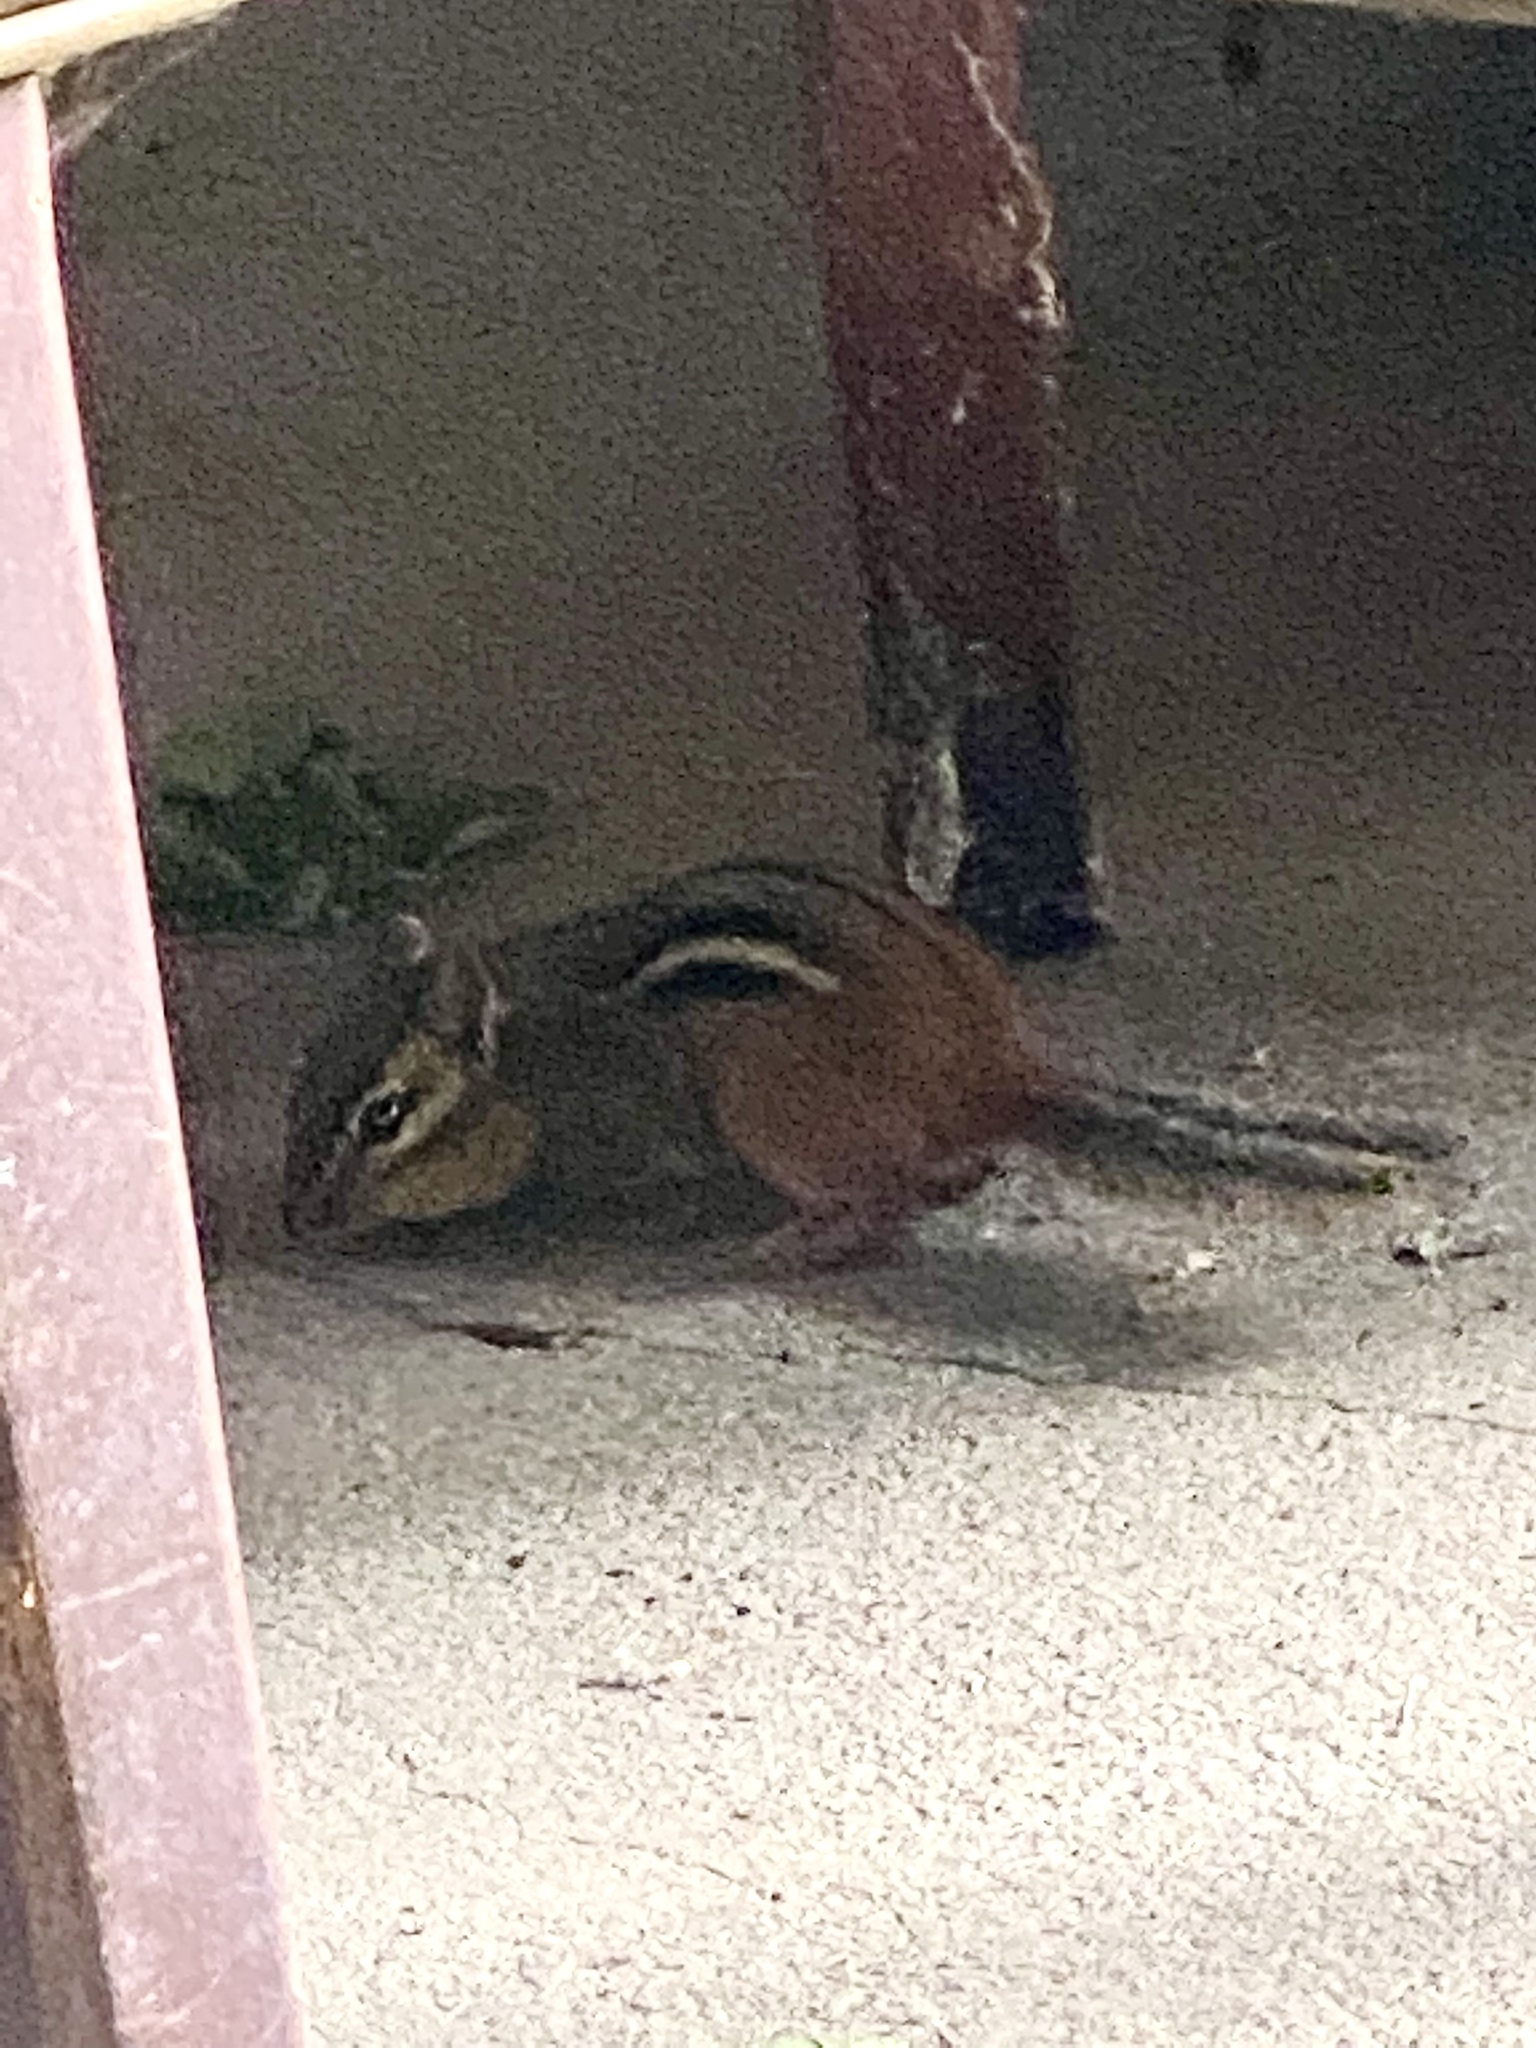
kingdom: Animalia
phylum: Chordata
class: Mammalia
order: Rodentia
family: Sciuridae
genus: Tamias
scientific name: Tamias striatus
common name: Eastern chipmunk
